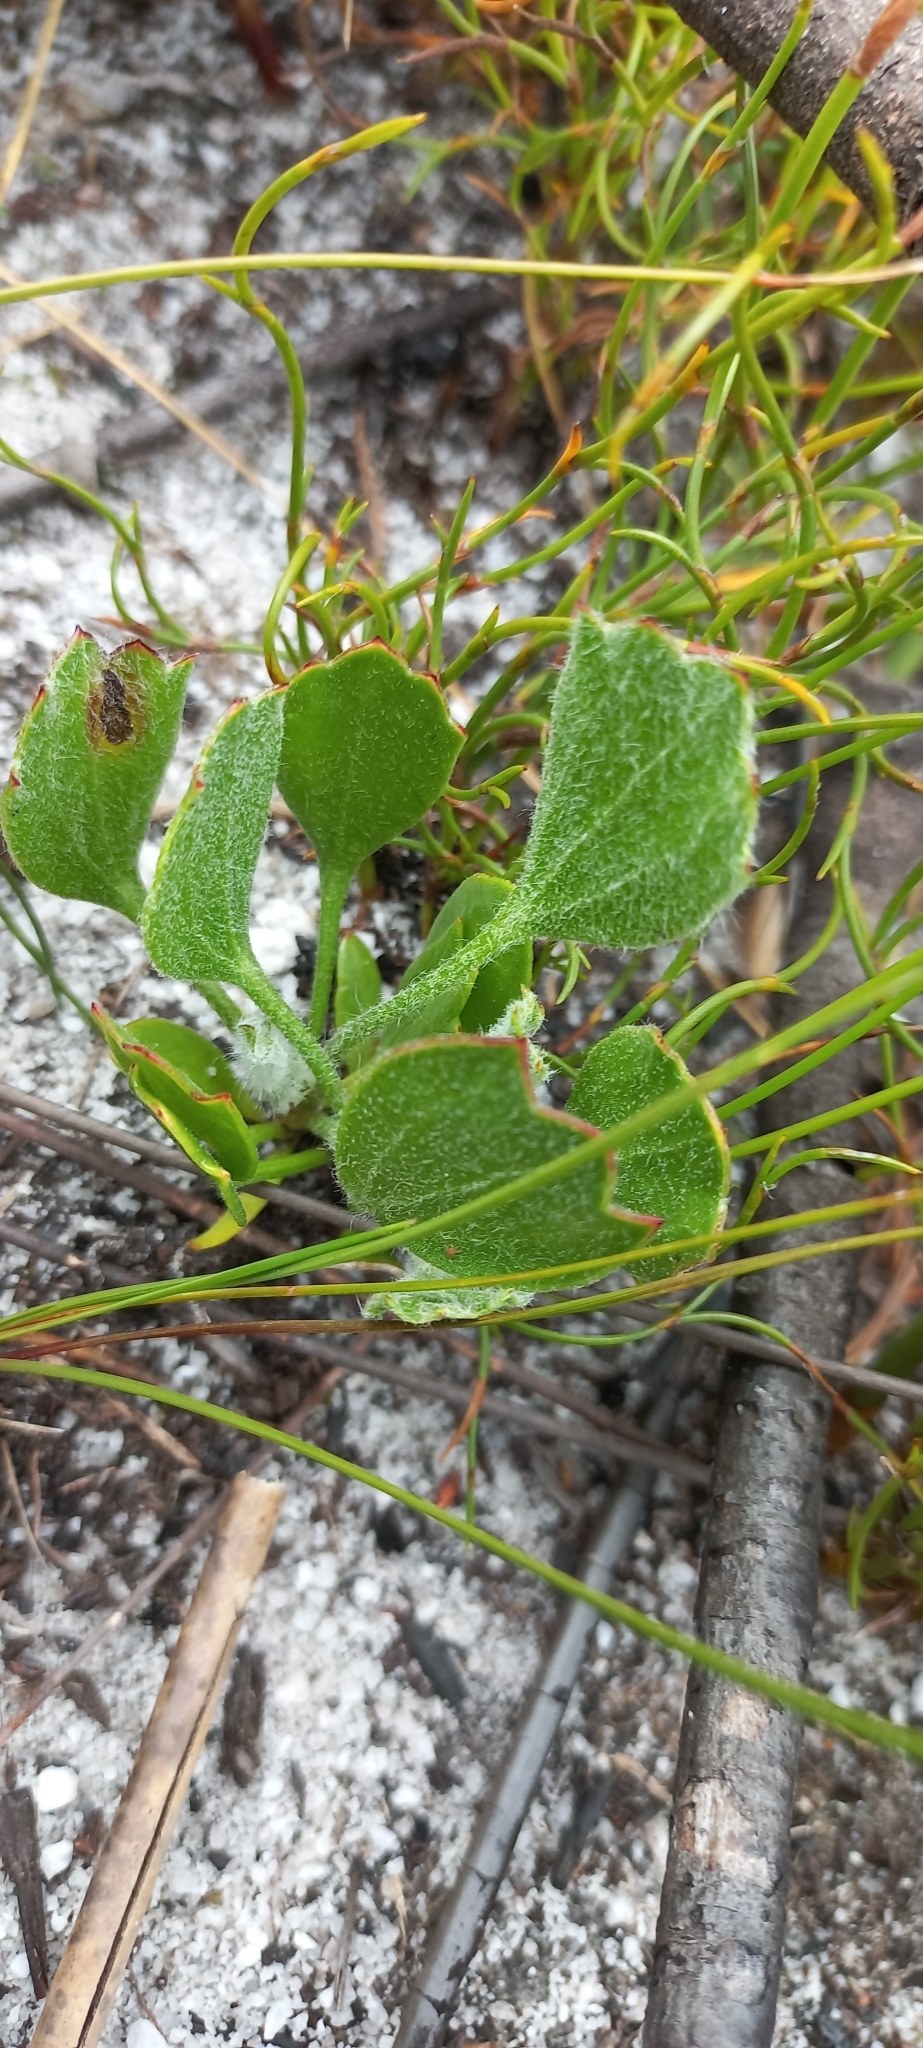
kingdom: Plantae
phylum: Tracheophyta
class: Magnoliopsida
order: Apiales
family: Apiaceae
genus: Centella
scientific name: Centella difformis
